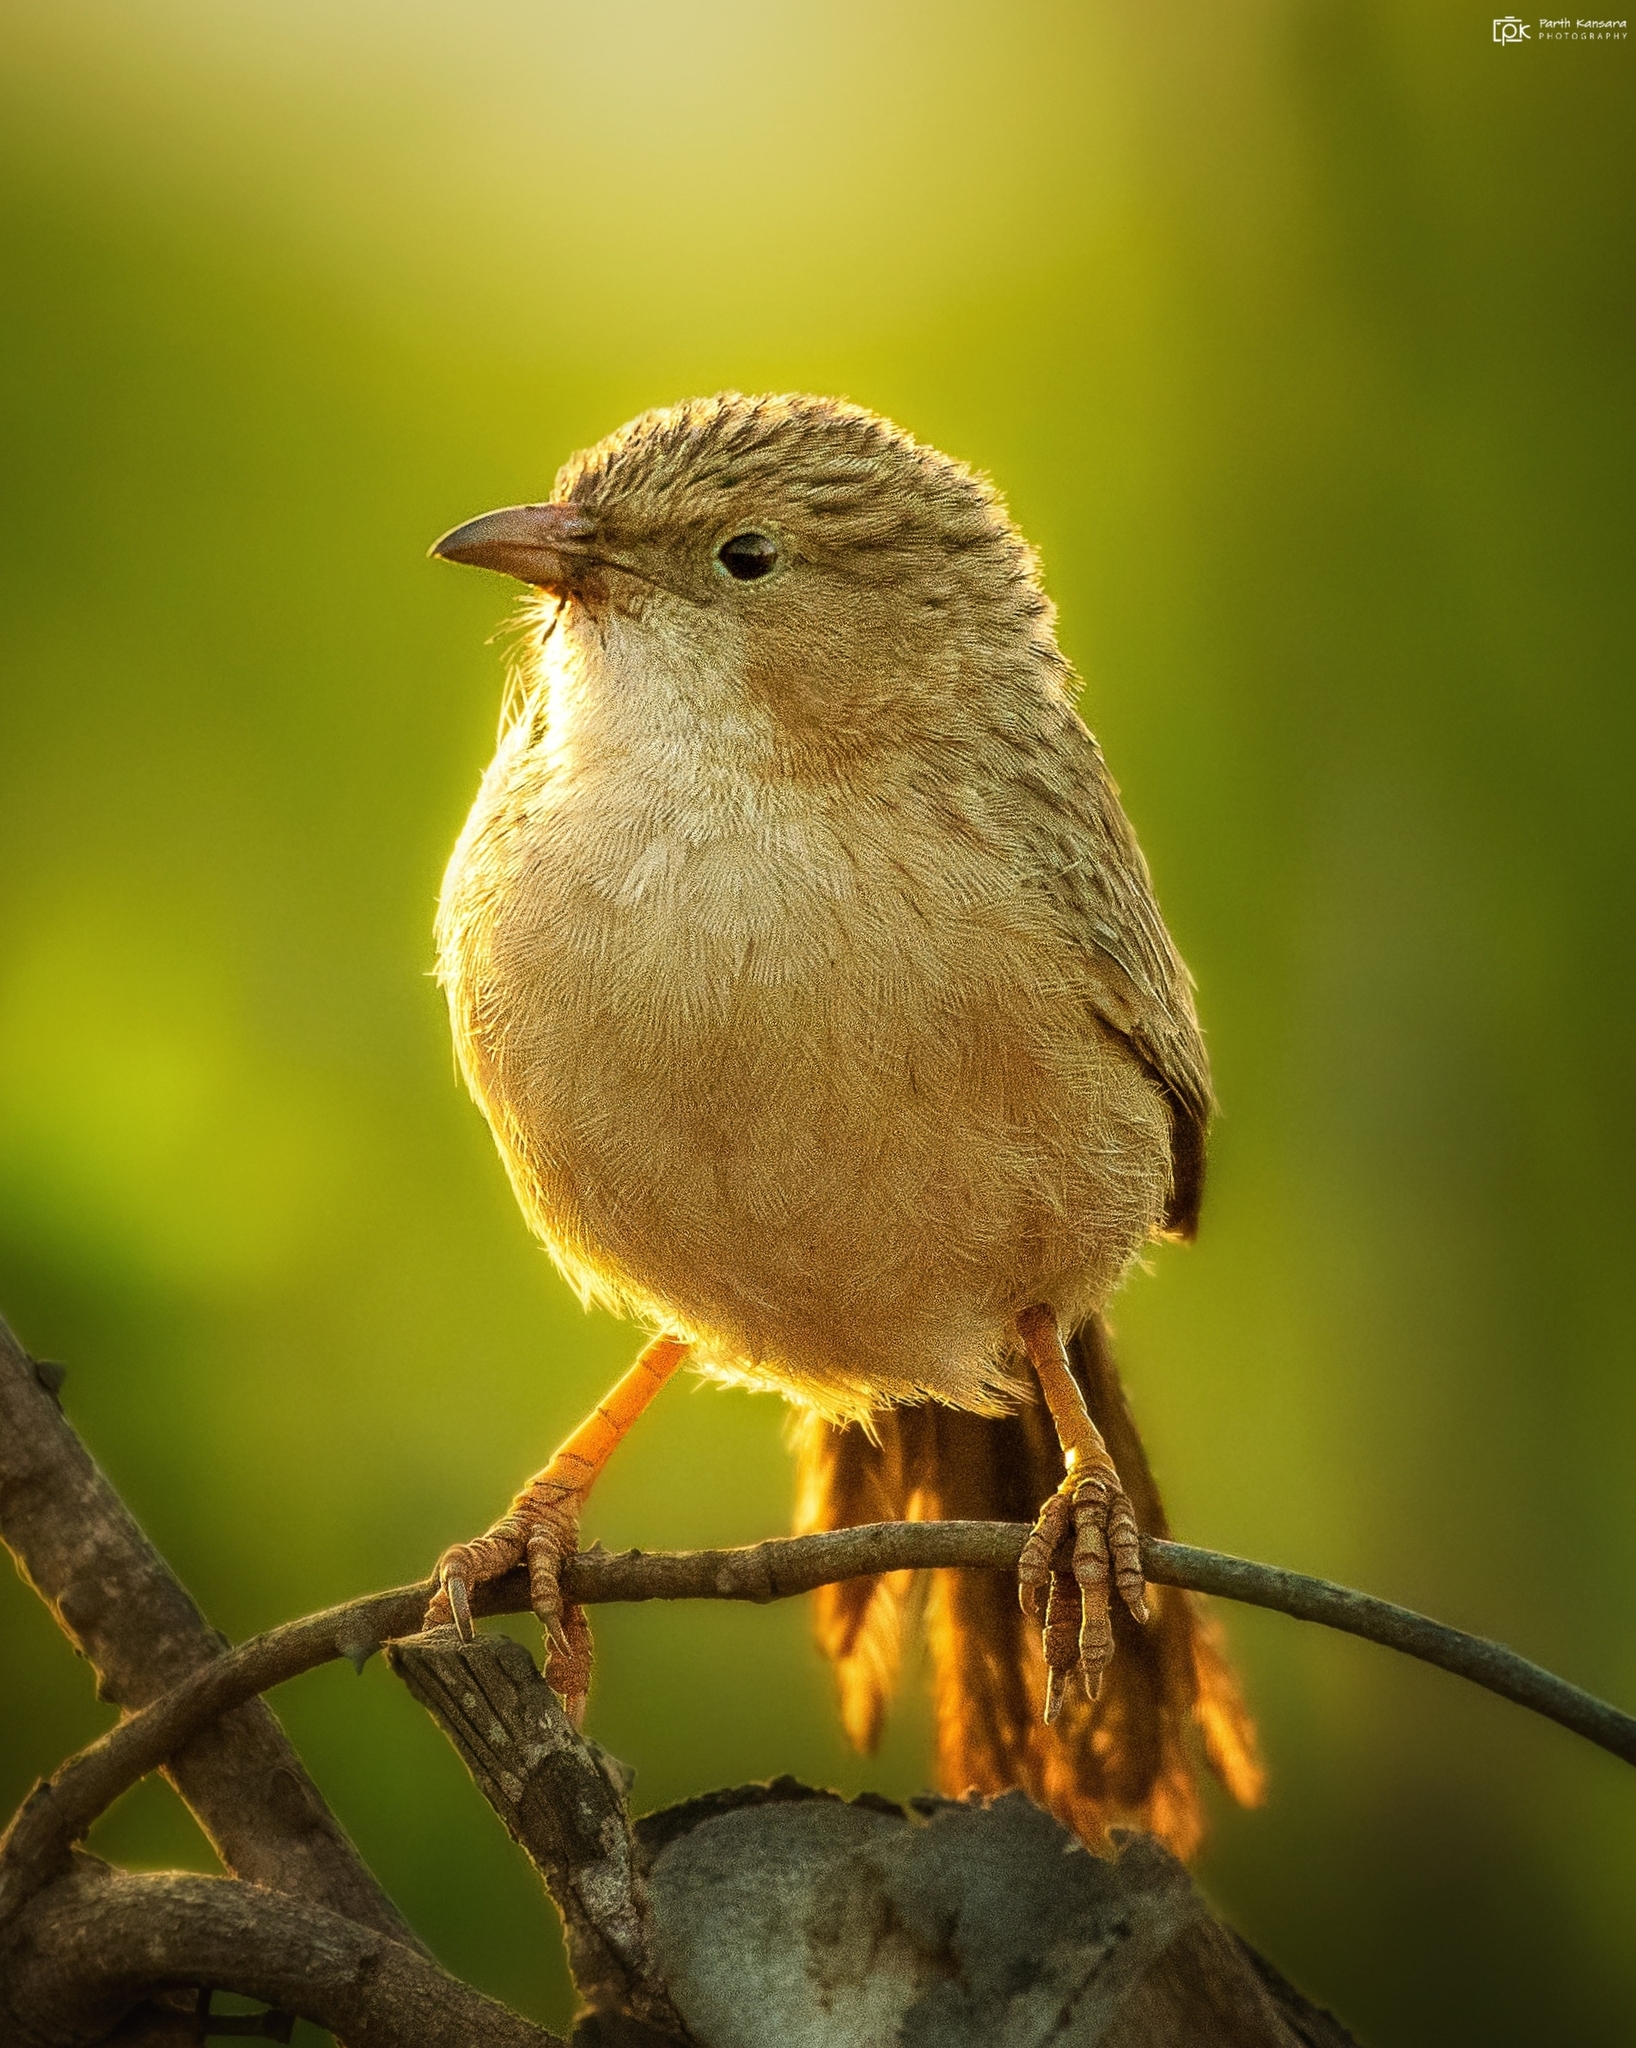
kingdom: Animalia
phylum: Chordata
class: Aves
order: Passeriformes
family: Leiothrichidae
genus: Turdoides
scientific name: Turdoides caudata
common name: Common babbler
